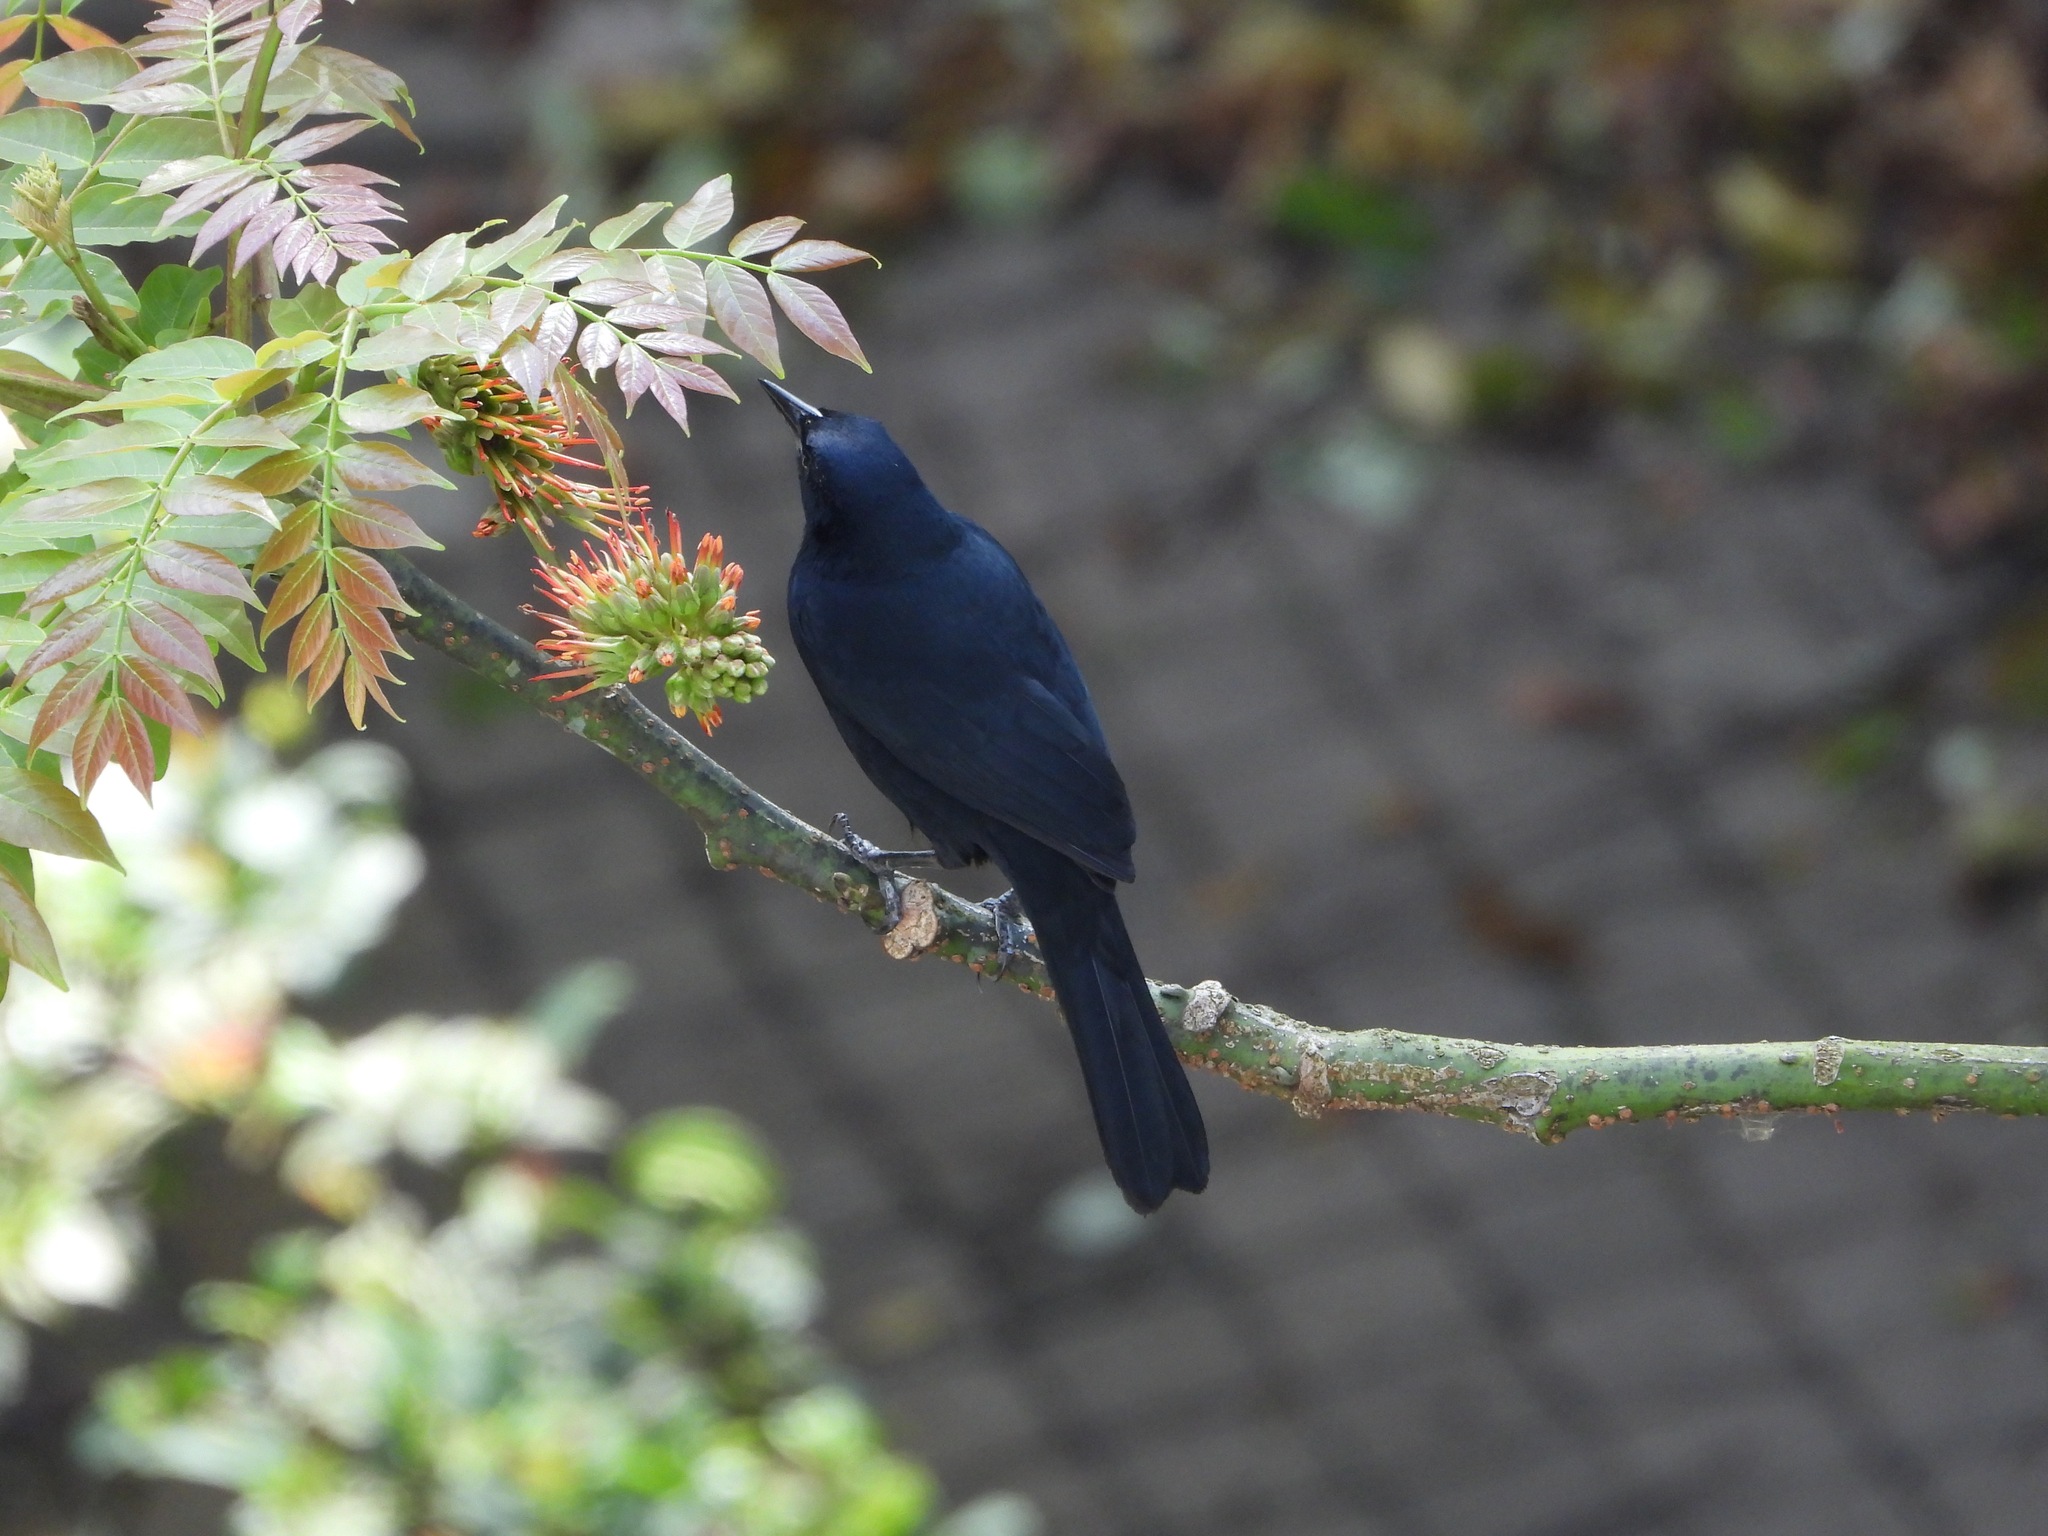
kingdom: Animalia
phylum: Chordata
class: Aves
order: Passeriformes
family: Icteridae
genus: Dives
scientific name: Dives dives
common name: Melodious blackbird
